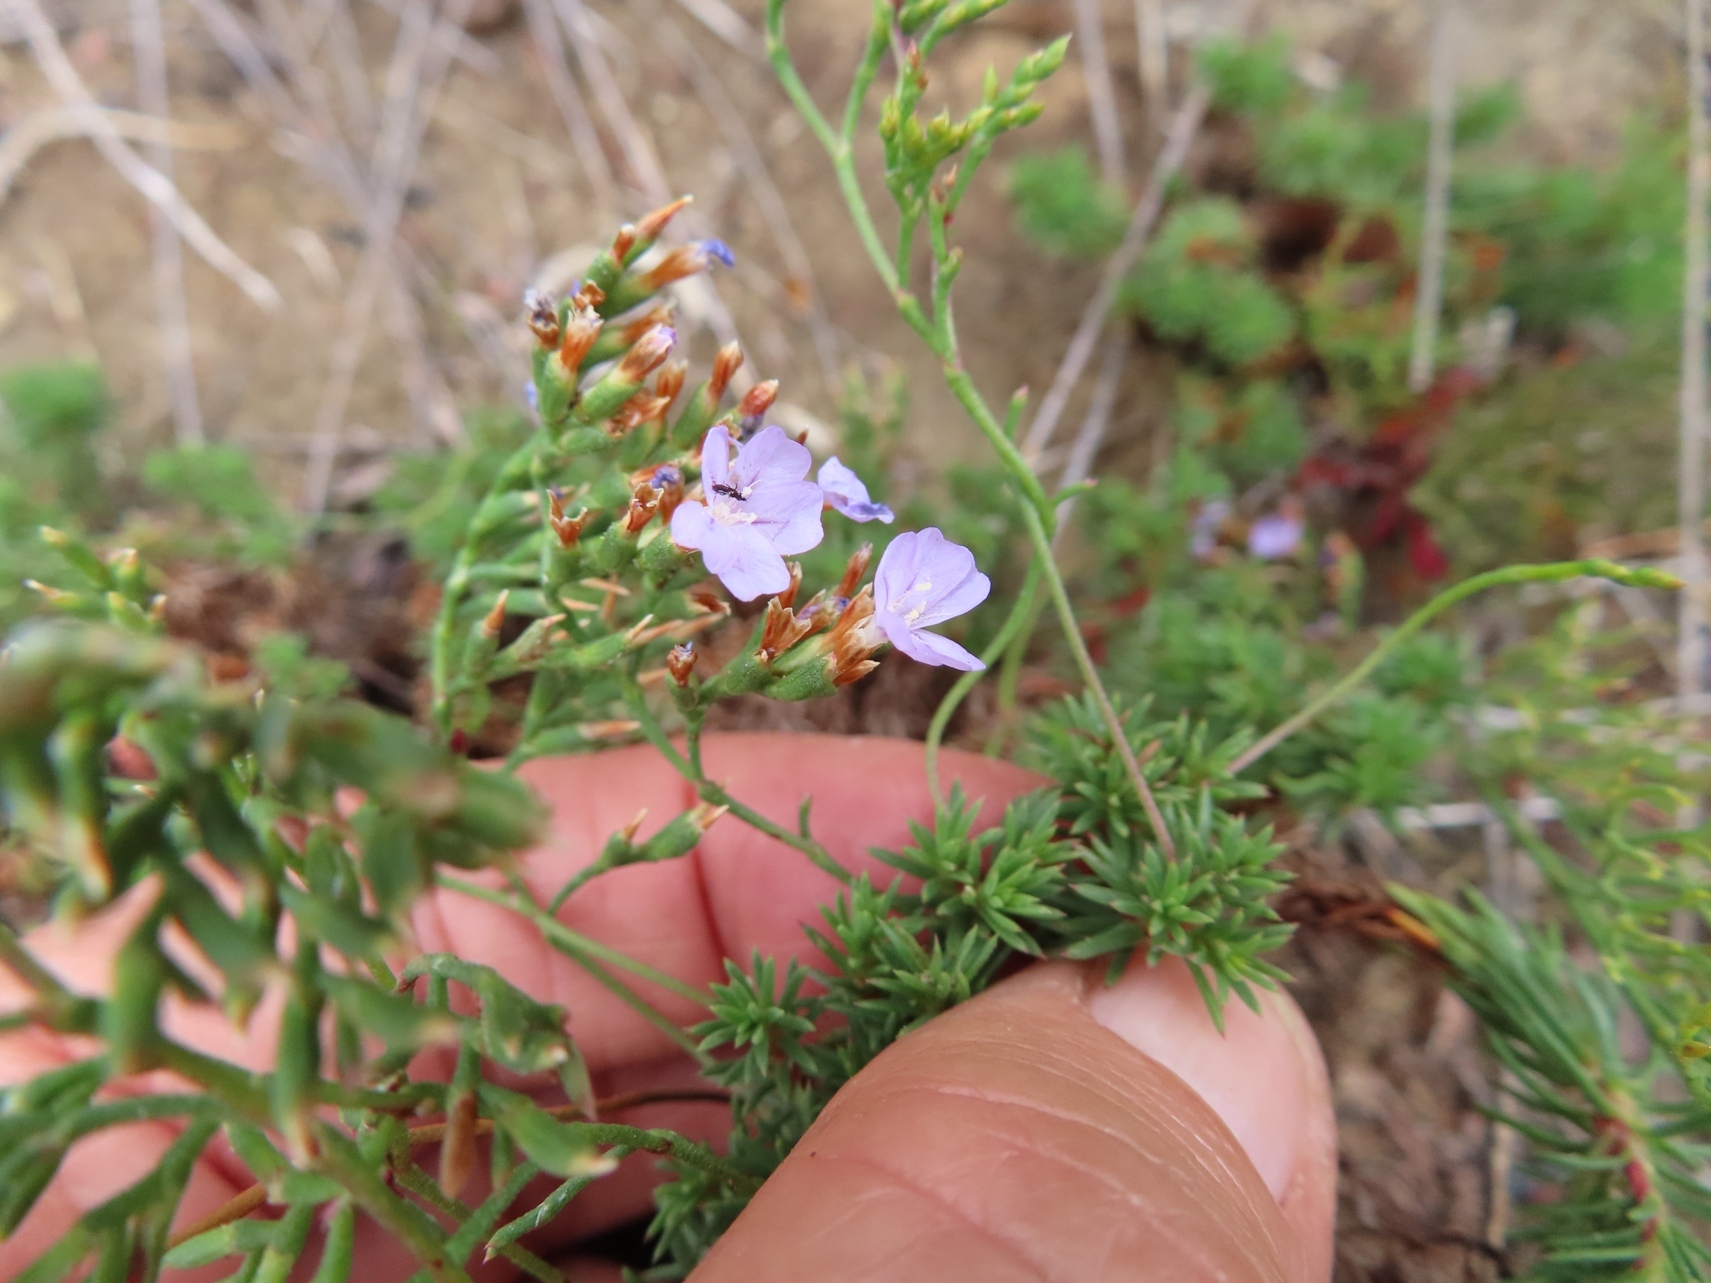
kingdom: Plantae
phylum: Tracheophyta
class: Magnoliopsida
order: Caryophyllales
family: Plumbaginaceae
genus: Limonium
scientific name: Limonium scabrum
